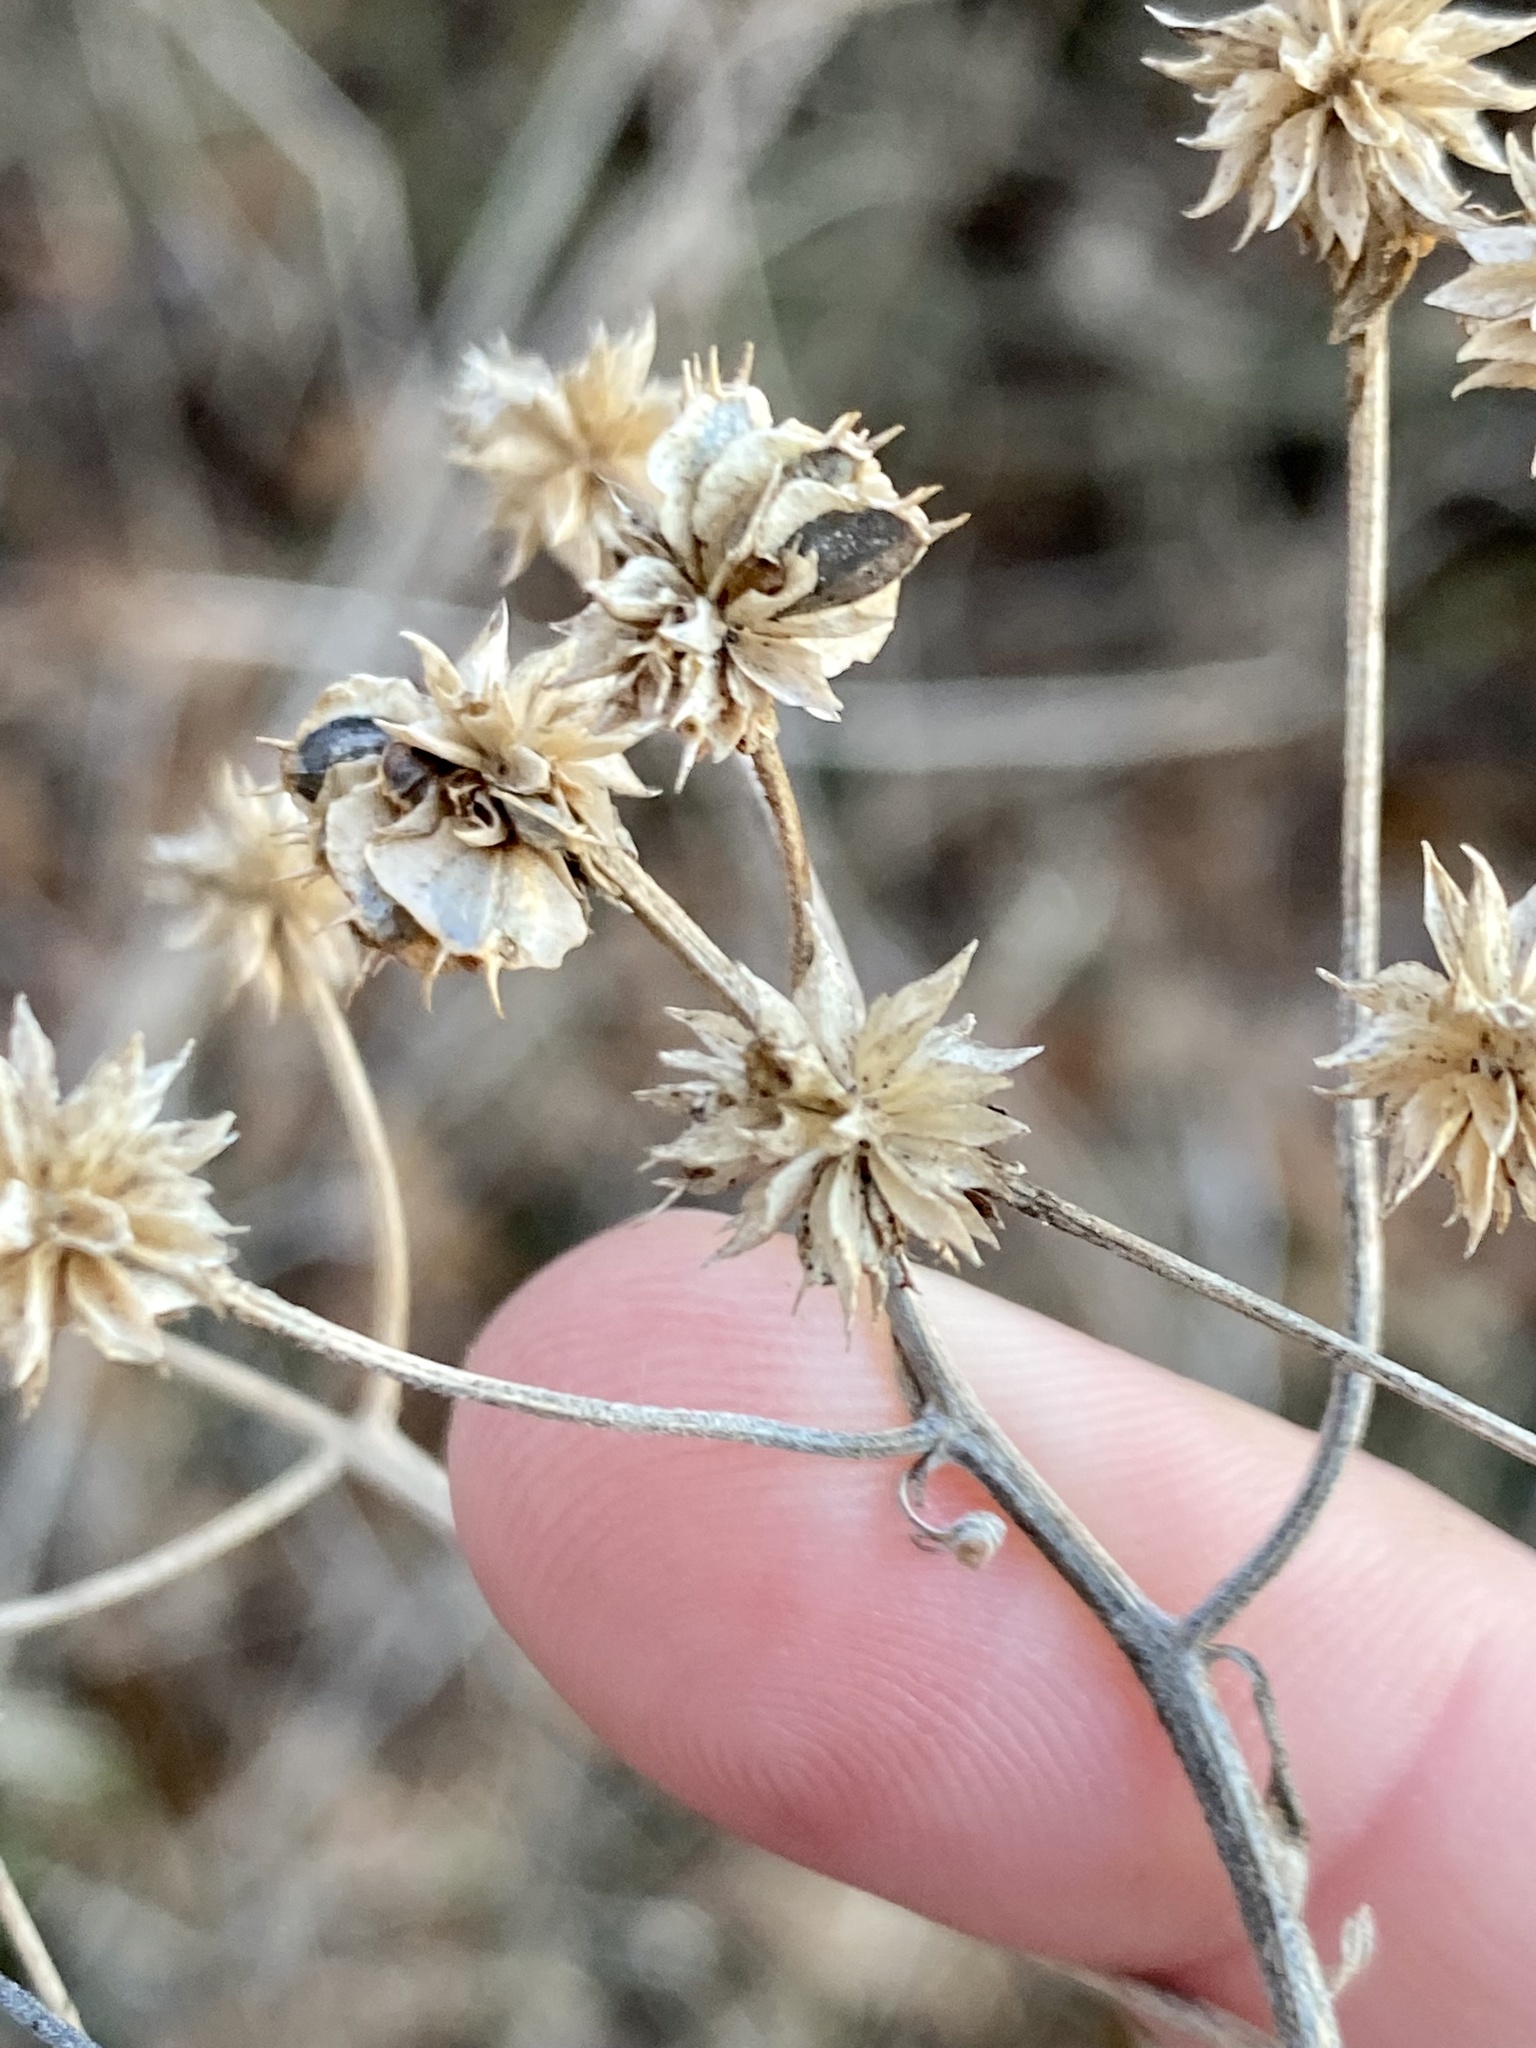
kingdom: Plantae
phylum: Tracheophyta
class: Magnoliopsida
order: Asterales
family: Asteraceae
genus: Verbesina
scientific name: Verbesina alternifolia
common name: Wingstem
